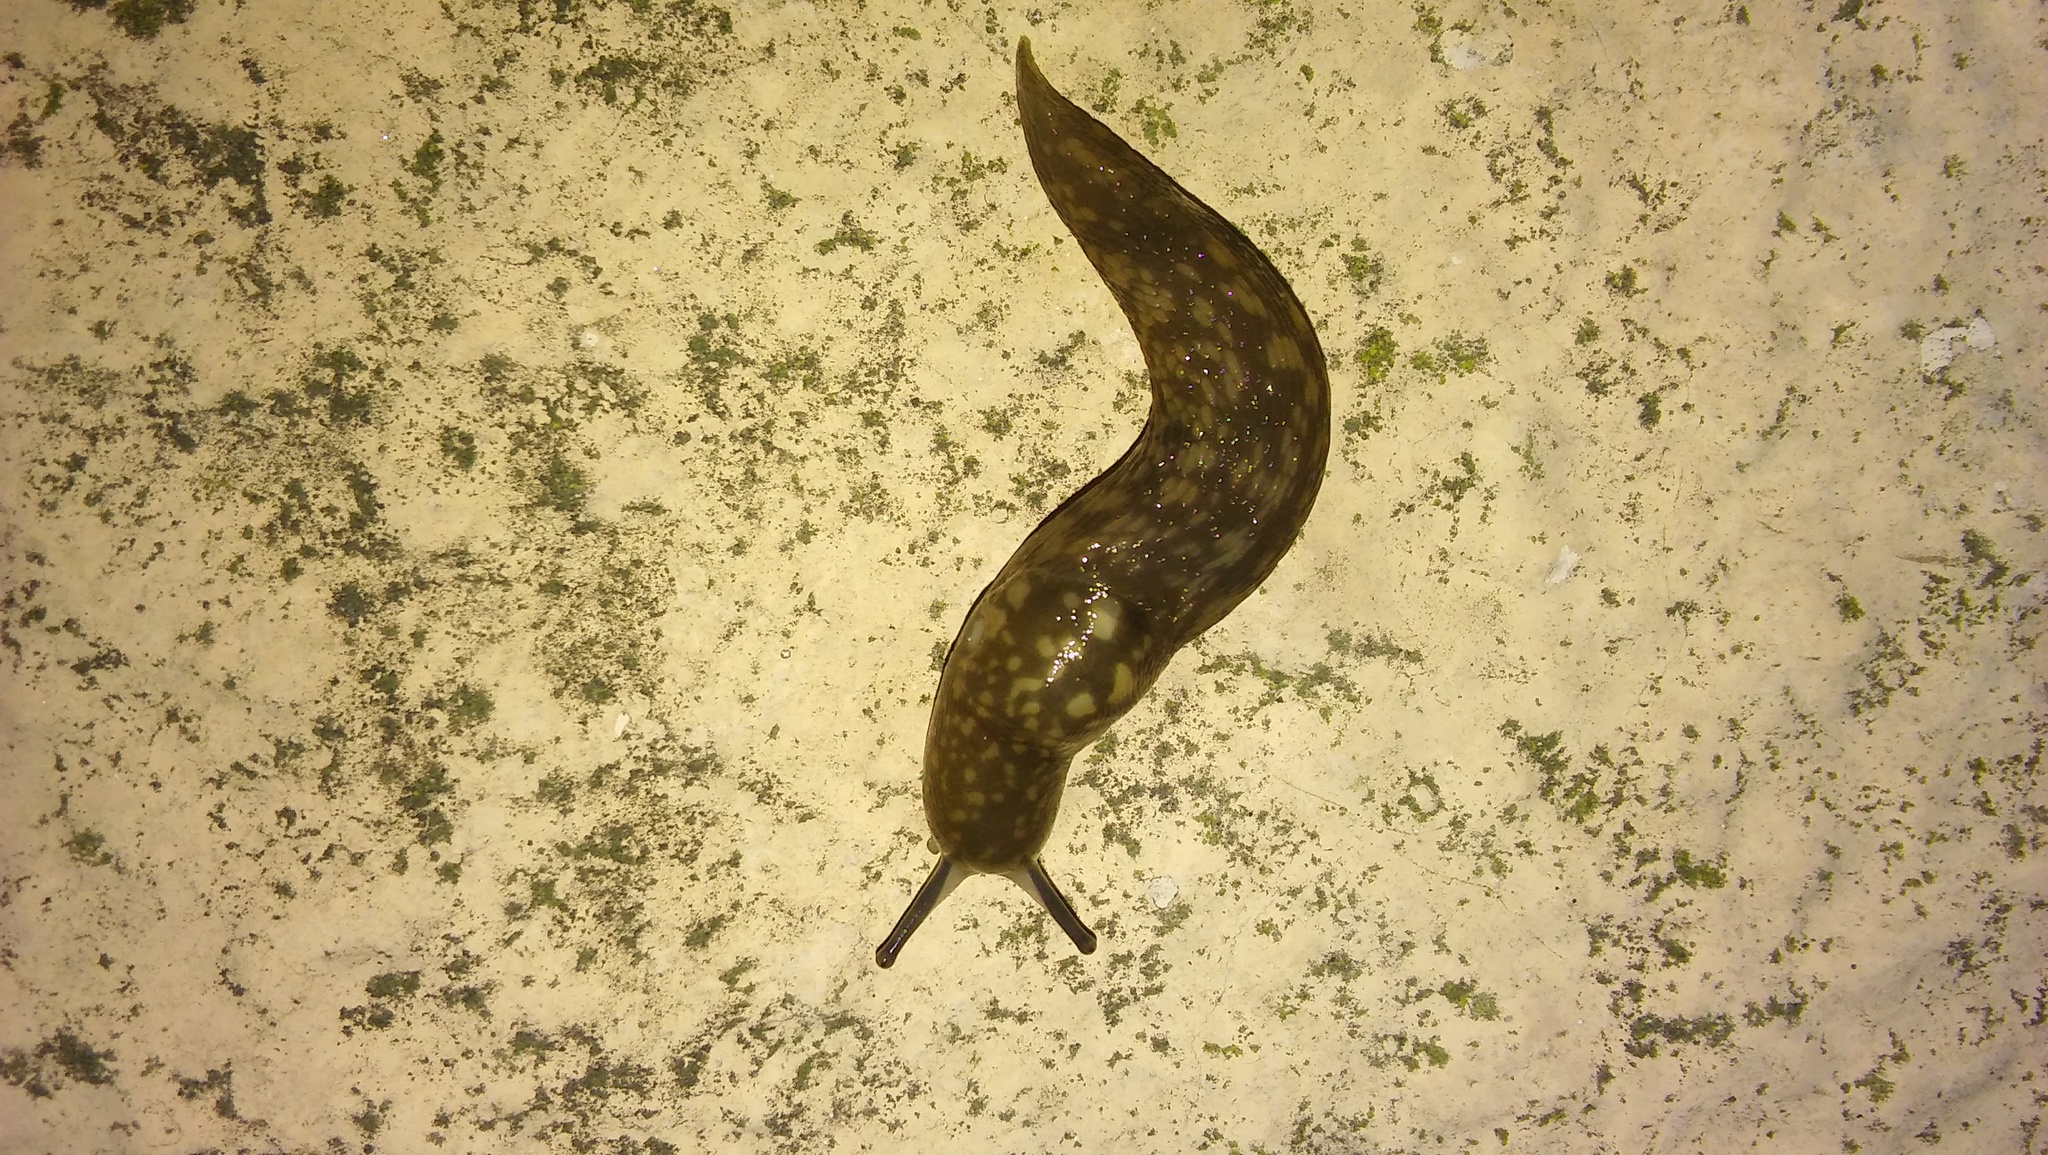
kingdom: Animalia
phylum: Mollusca
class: Gastropoda
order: Stylommatophora
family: Limacidae
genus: Limacus
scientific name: Limacus flavus
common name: Yellow gardenslug
